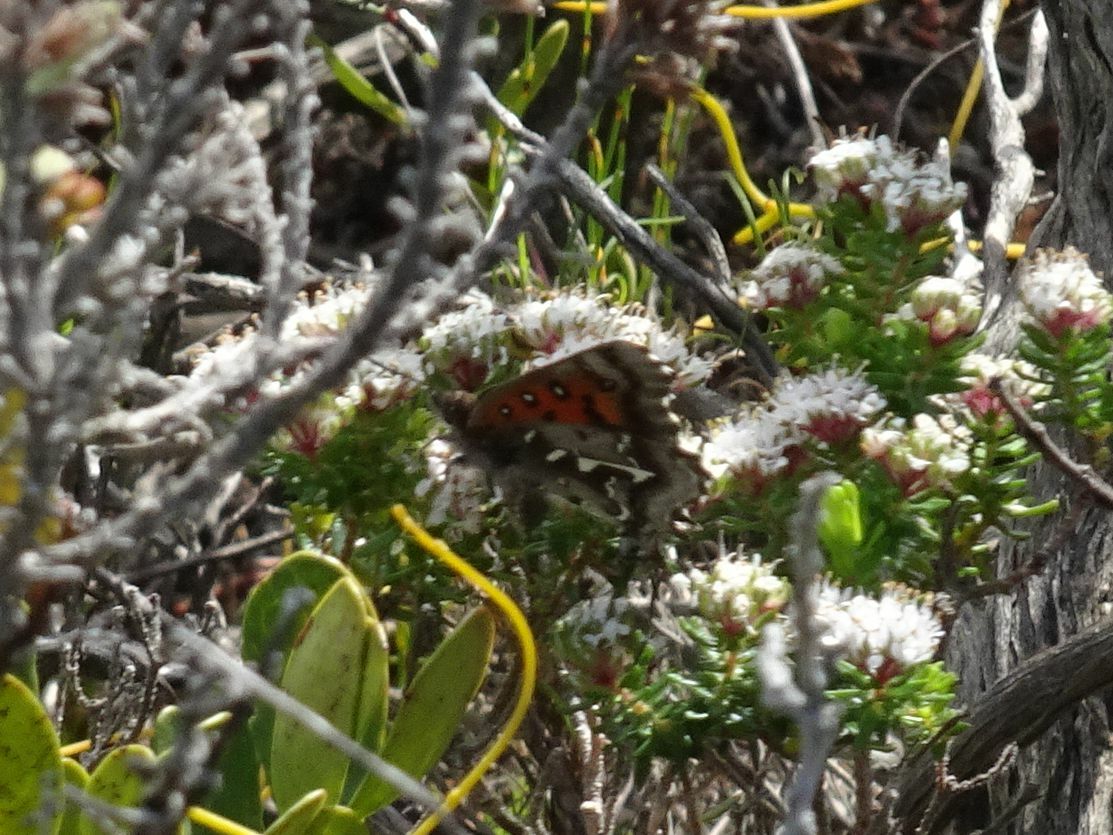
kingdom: Animalia
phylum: Arthropoda
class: Insecta
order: Lepidoptera
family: Lycaenidae
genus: Phasis
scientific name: Phasis thero
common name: Silver arrowhead
